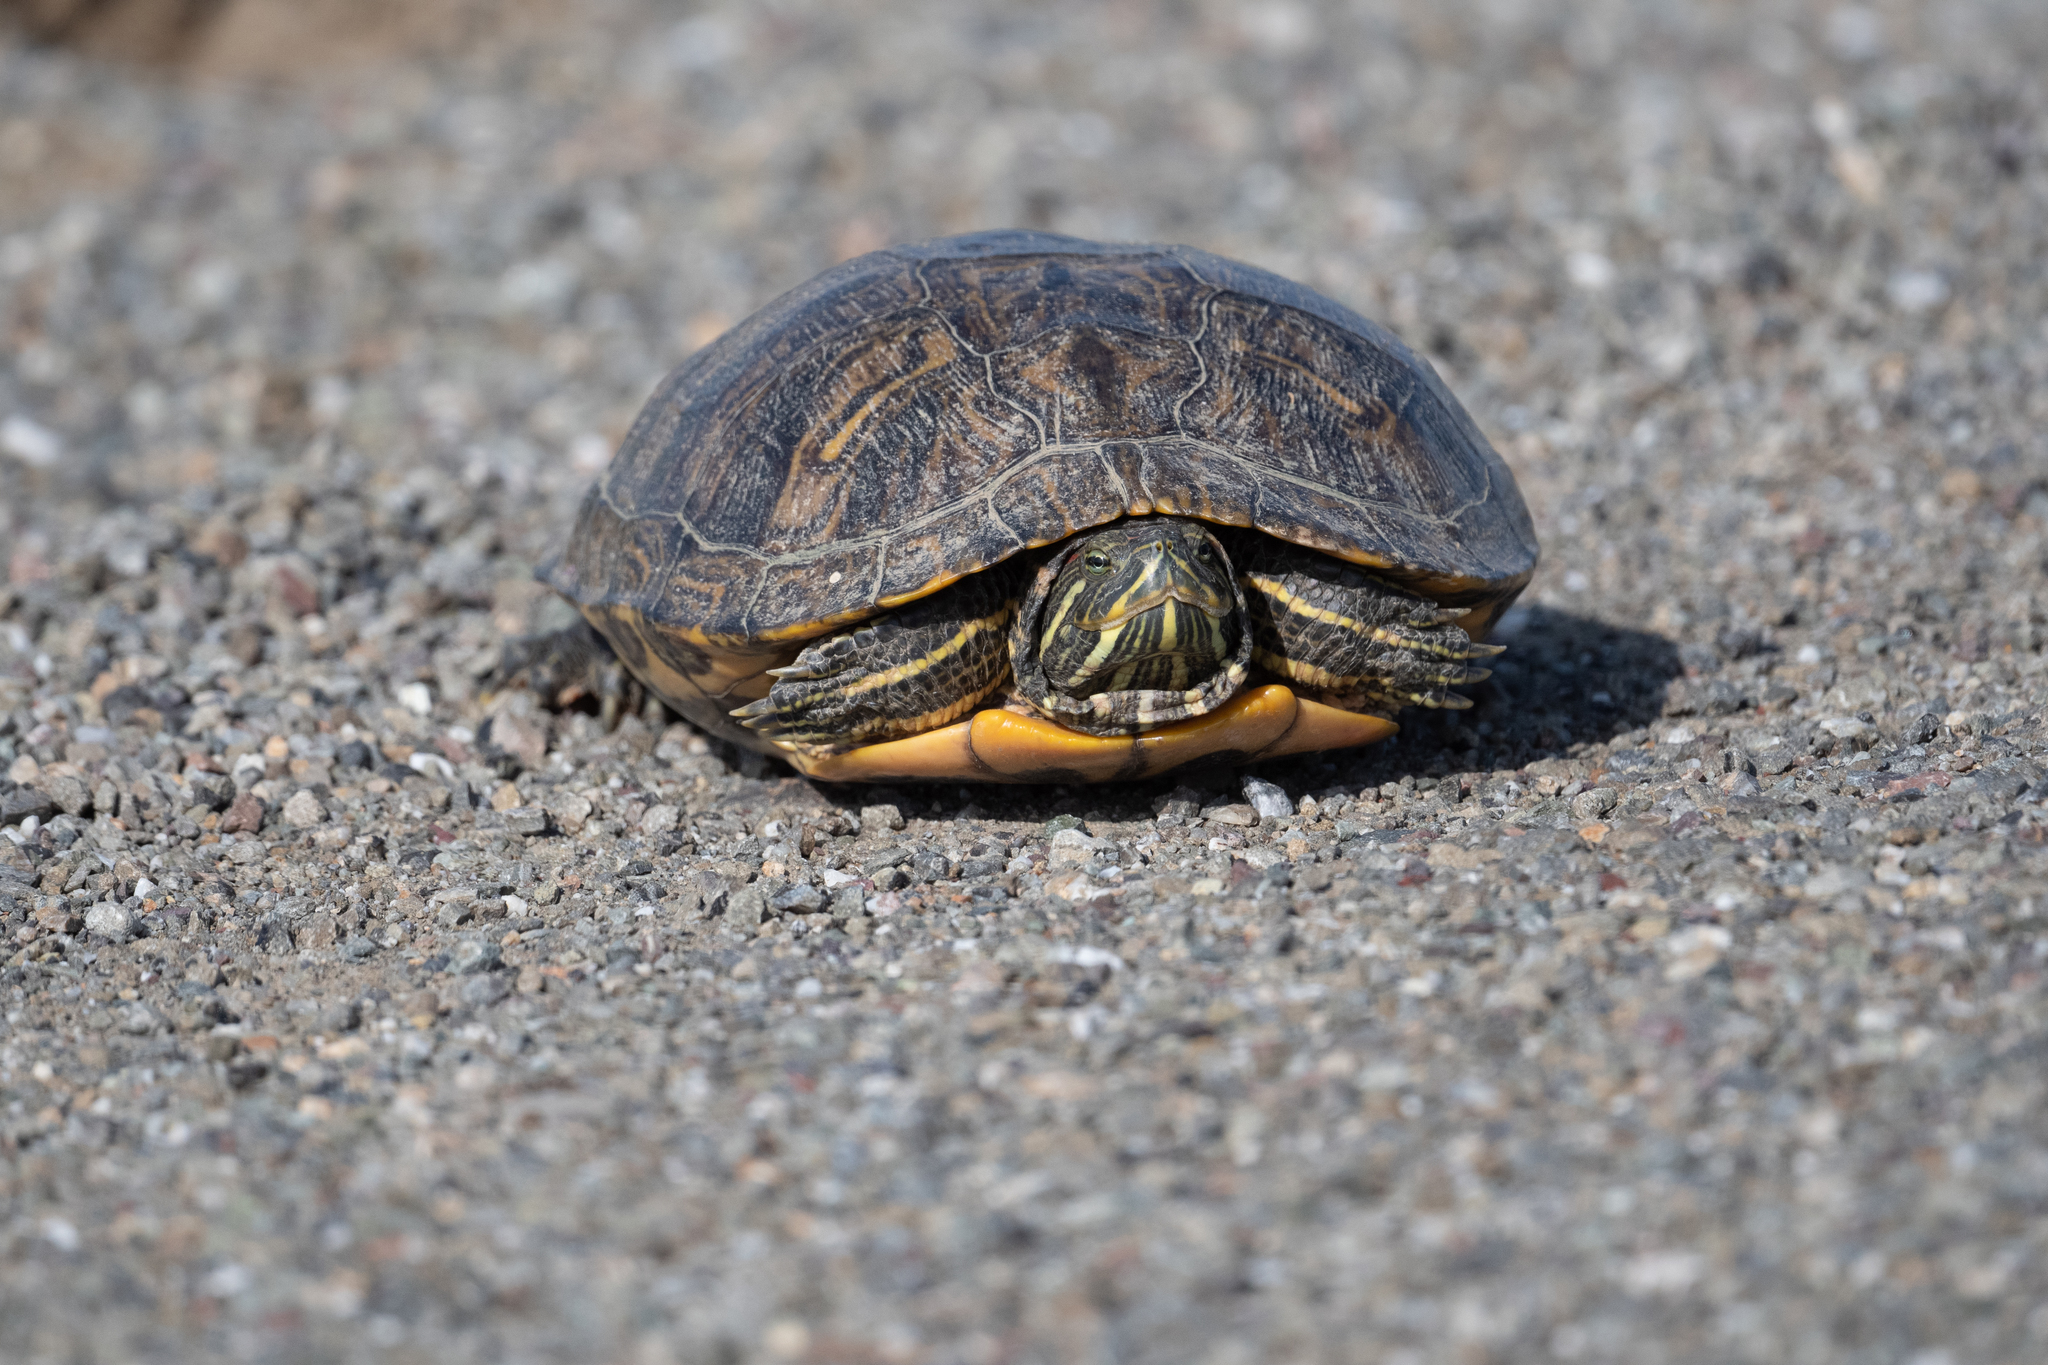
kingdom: Animalia
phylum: Chordata
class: Testudines
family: Emydidae
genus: Trachemys
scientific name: Trachemys scripta
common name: Slider
